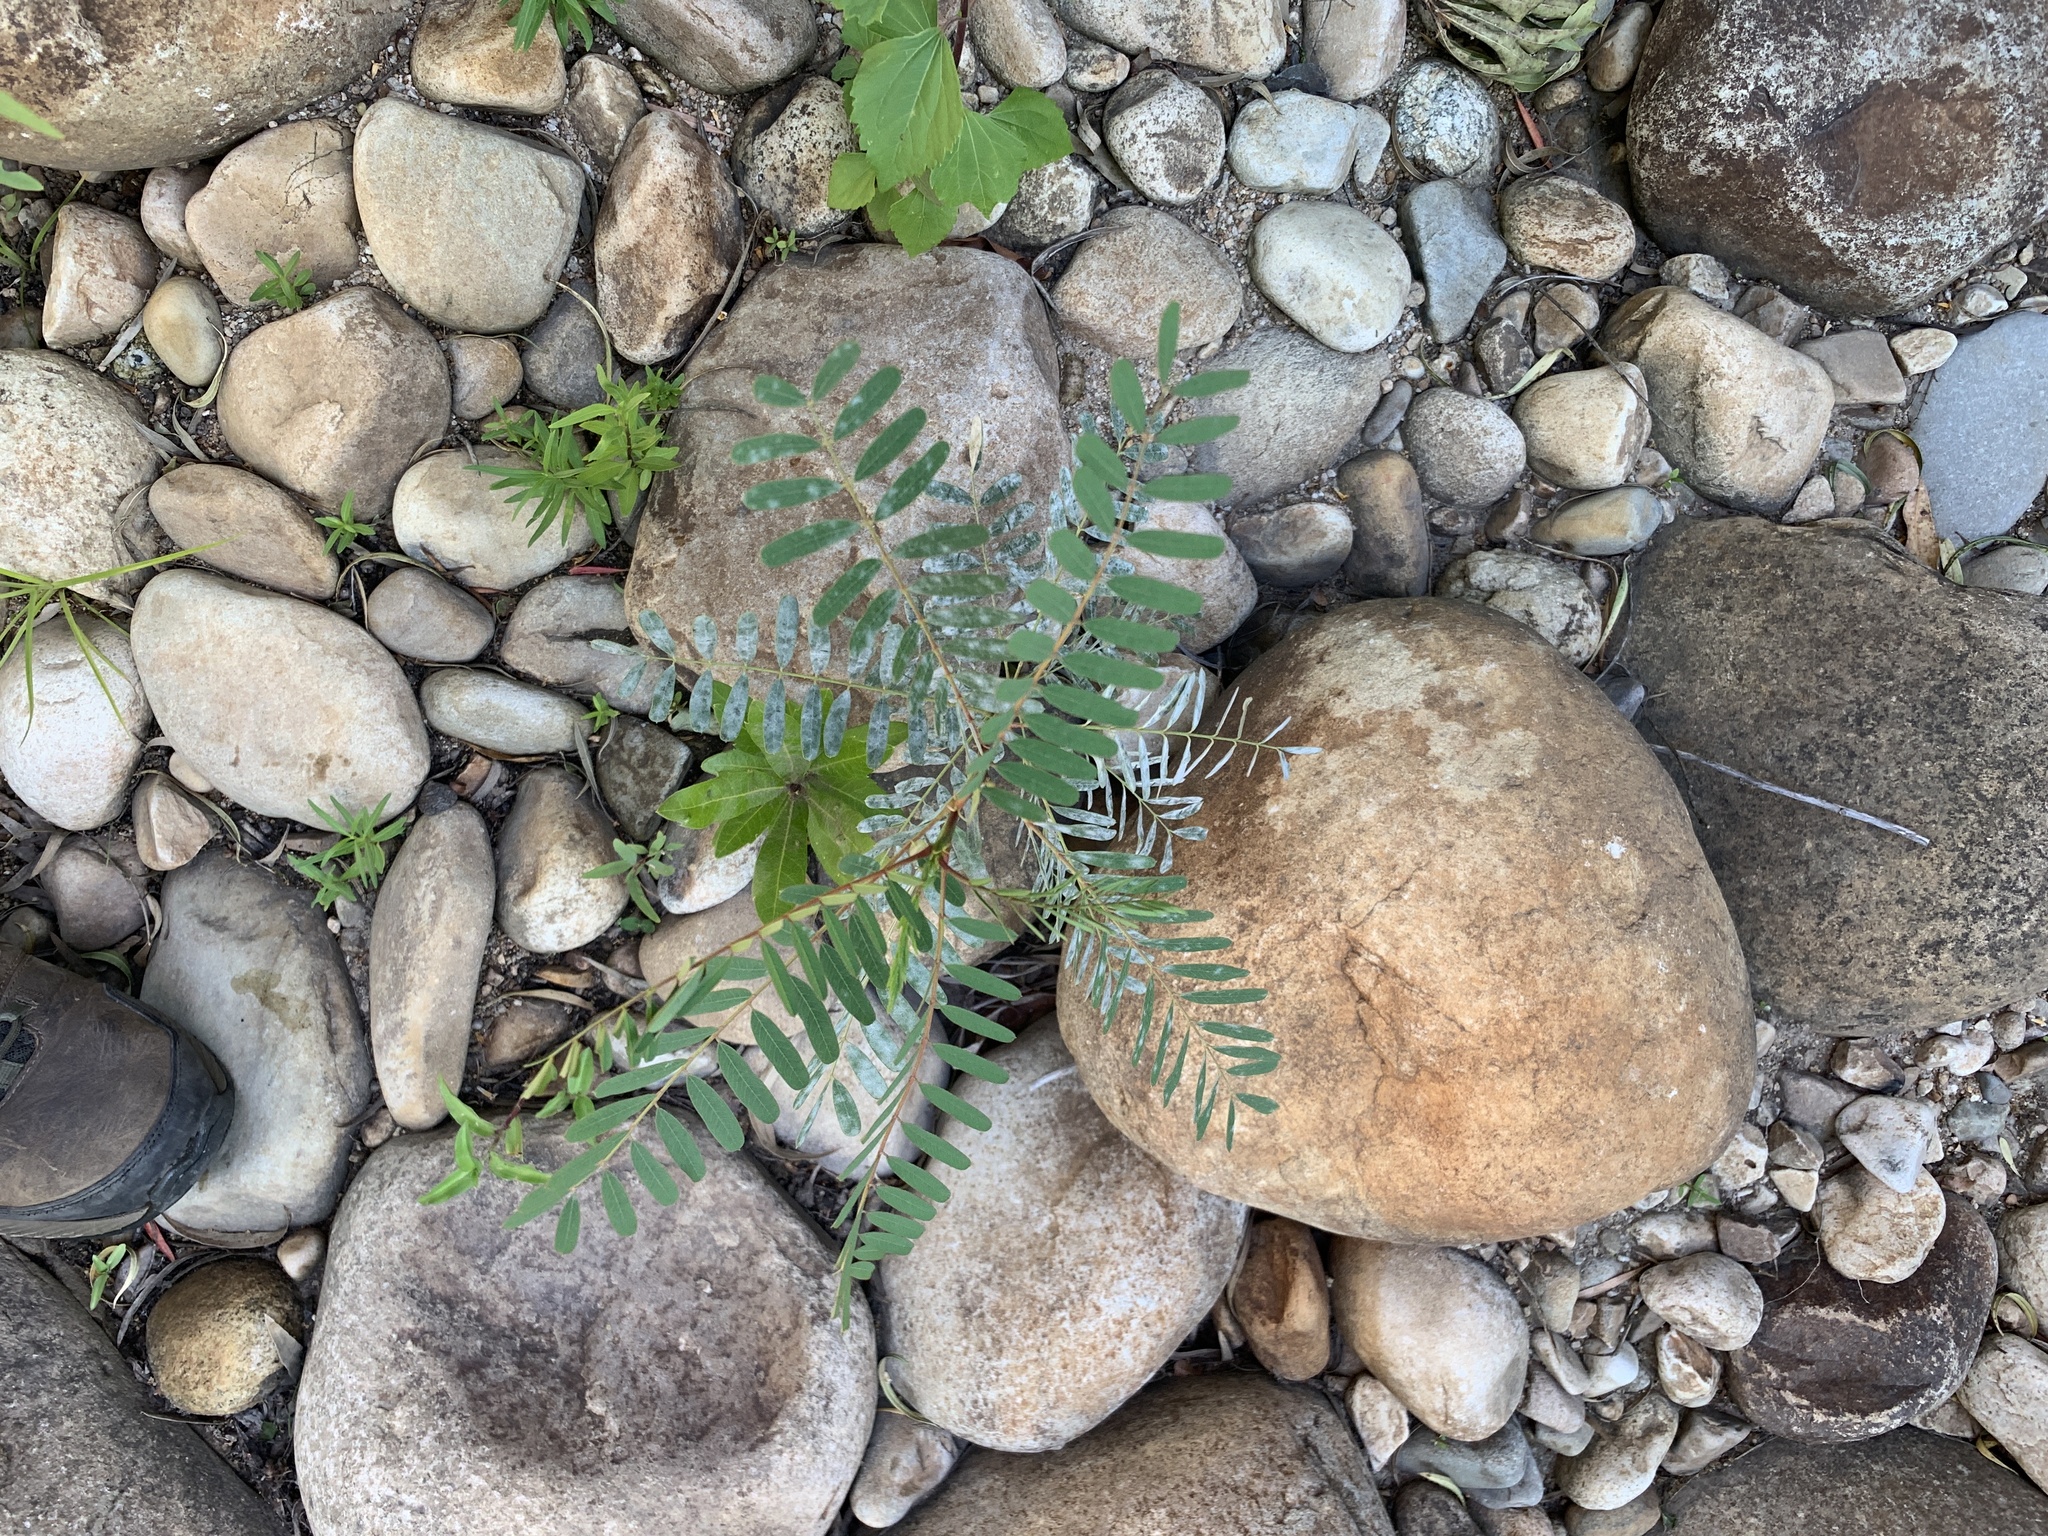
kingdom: Plantae
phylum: Tracheophyta
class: Magnoliopsida
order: Fabales
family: Fabaceae
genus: Sesbania
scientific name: Sesbania punicea
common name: Rattlebox
